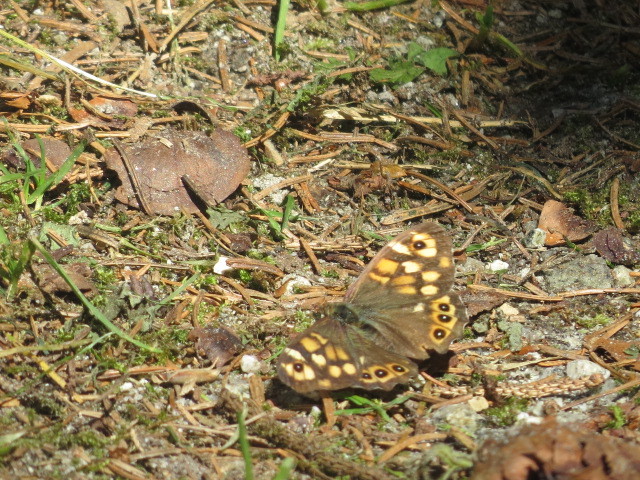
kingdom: Animalia
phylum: Arthropoda
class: Insecta
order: Lepidoptera
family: Nymphalidae
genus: Pararge
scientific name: Pararge aegeria
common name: Speckled wood
